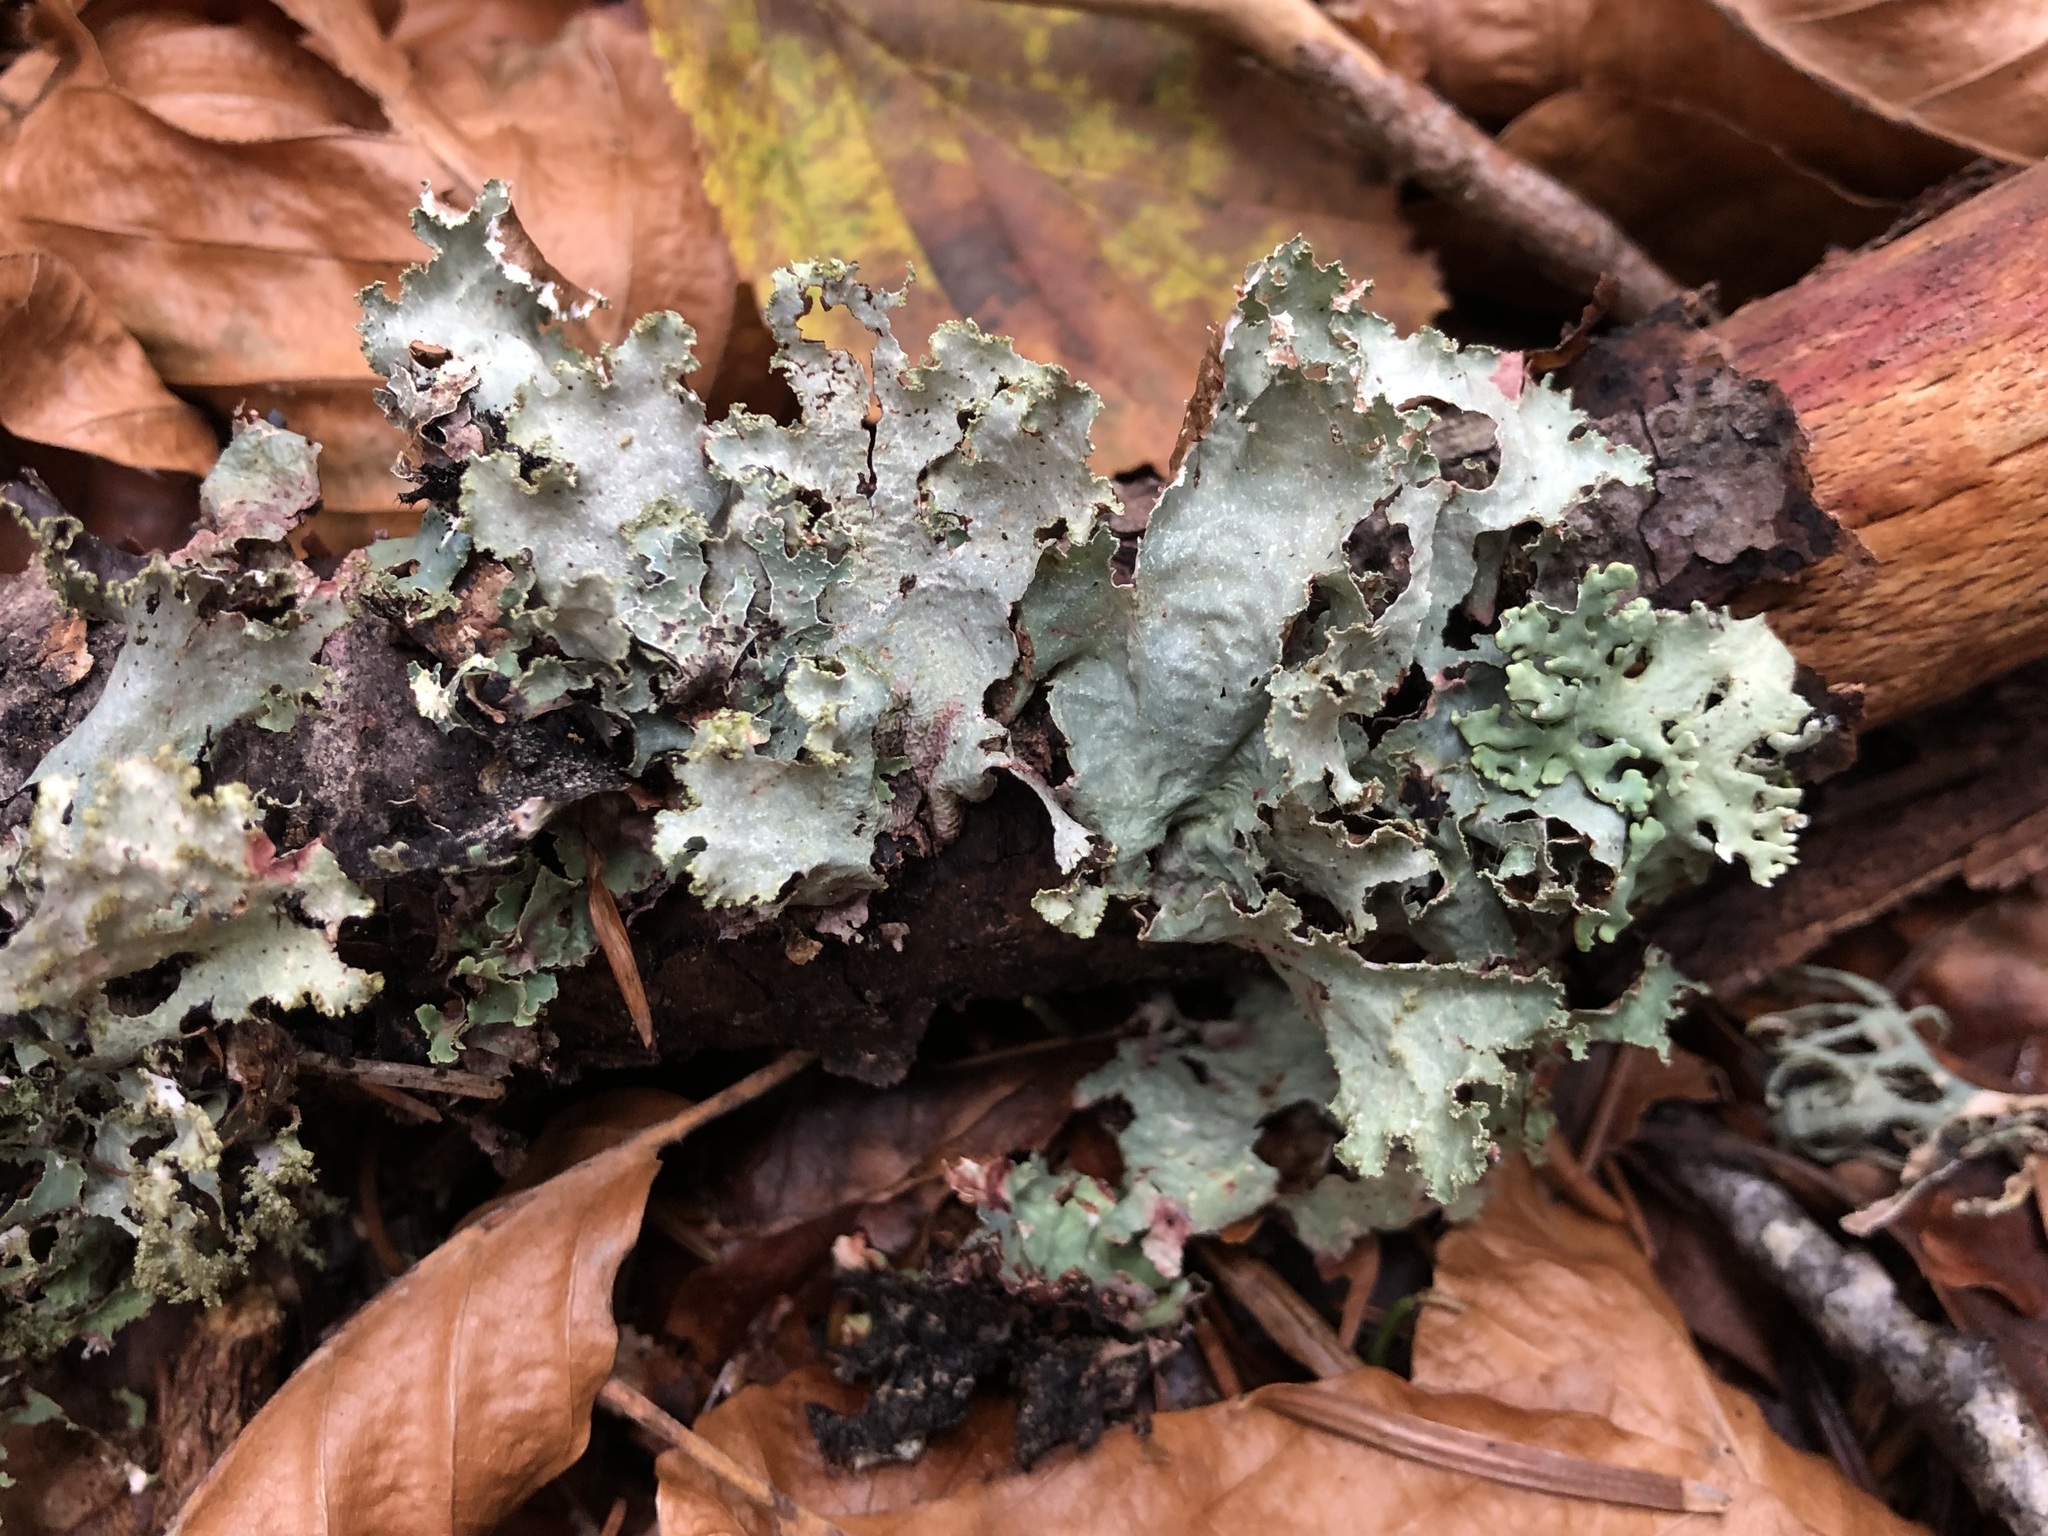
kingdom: Fungi
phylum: Ascomycota
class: Lecanoromycetes
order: Lecanorales
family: Parmeliaceae
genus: Platismatia
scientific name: Platismatia glauca
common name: Varied rag lichen
